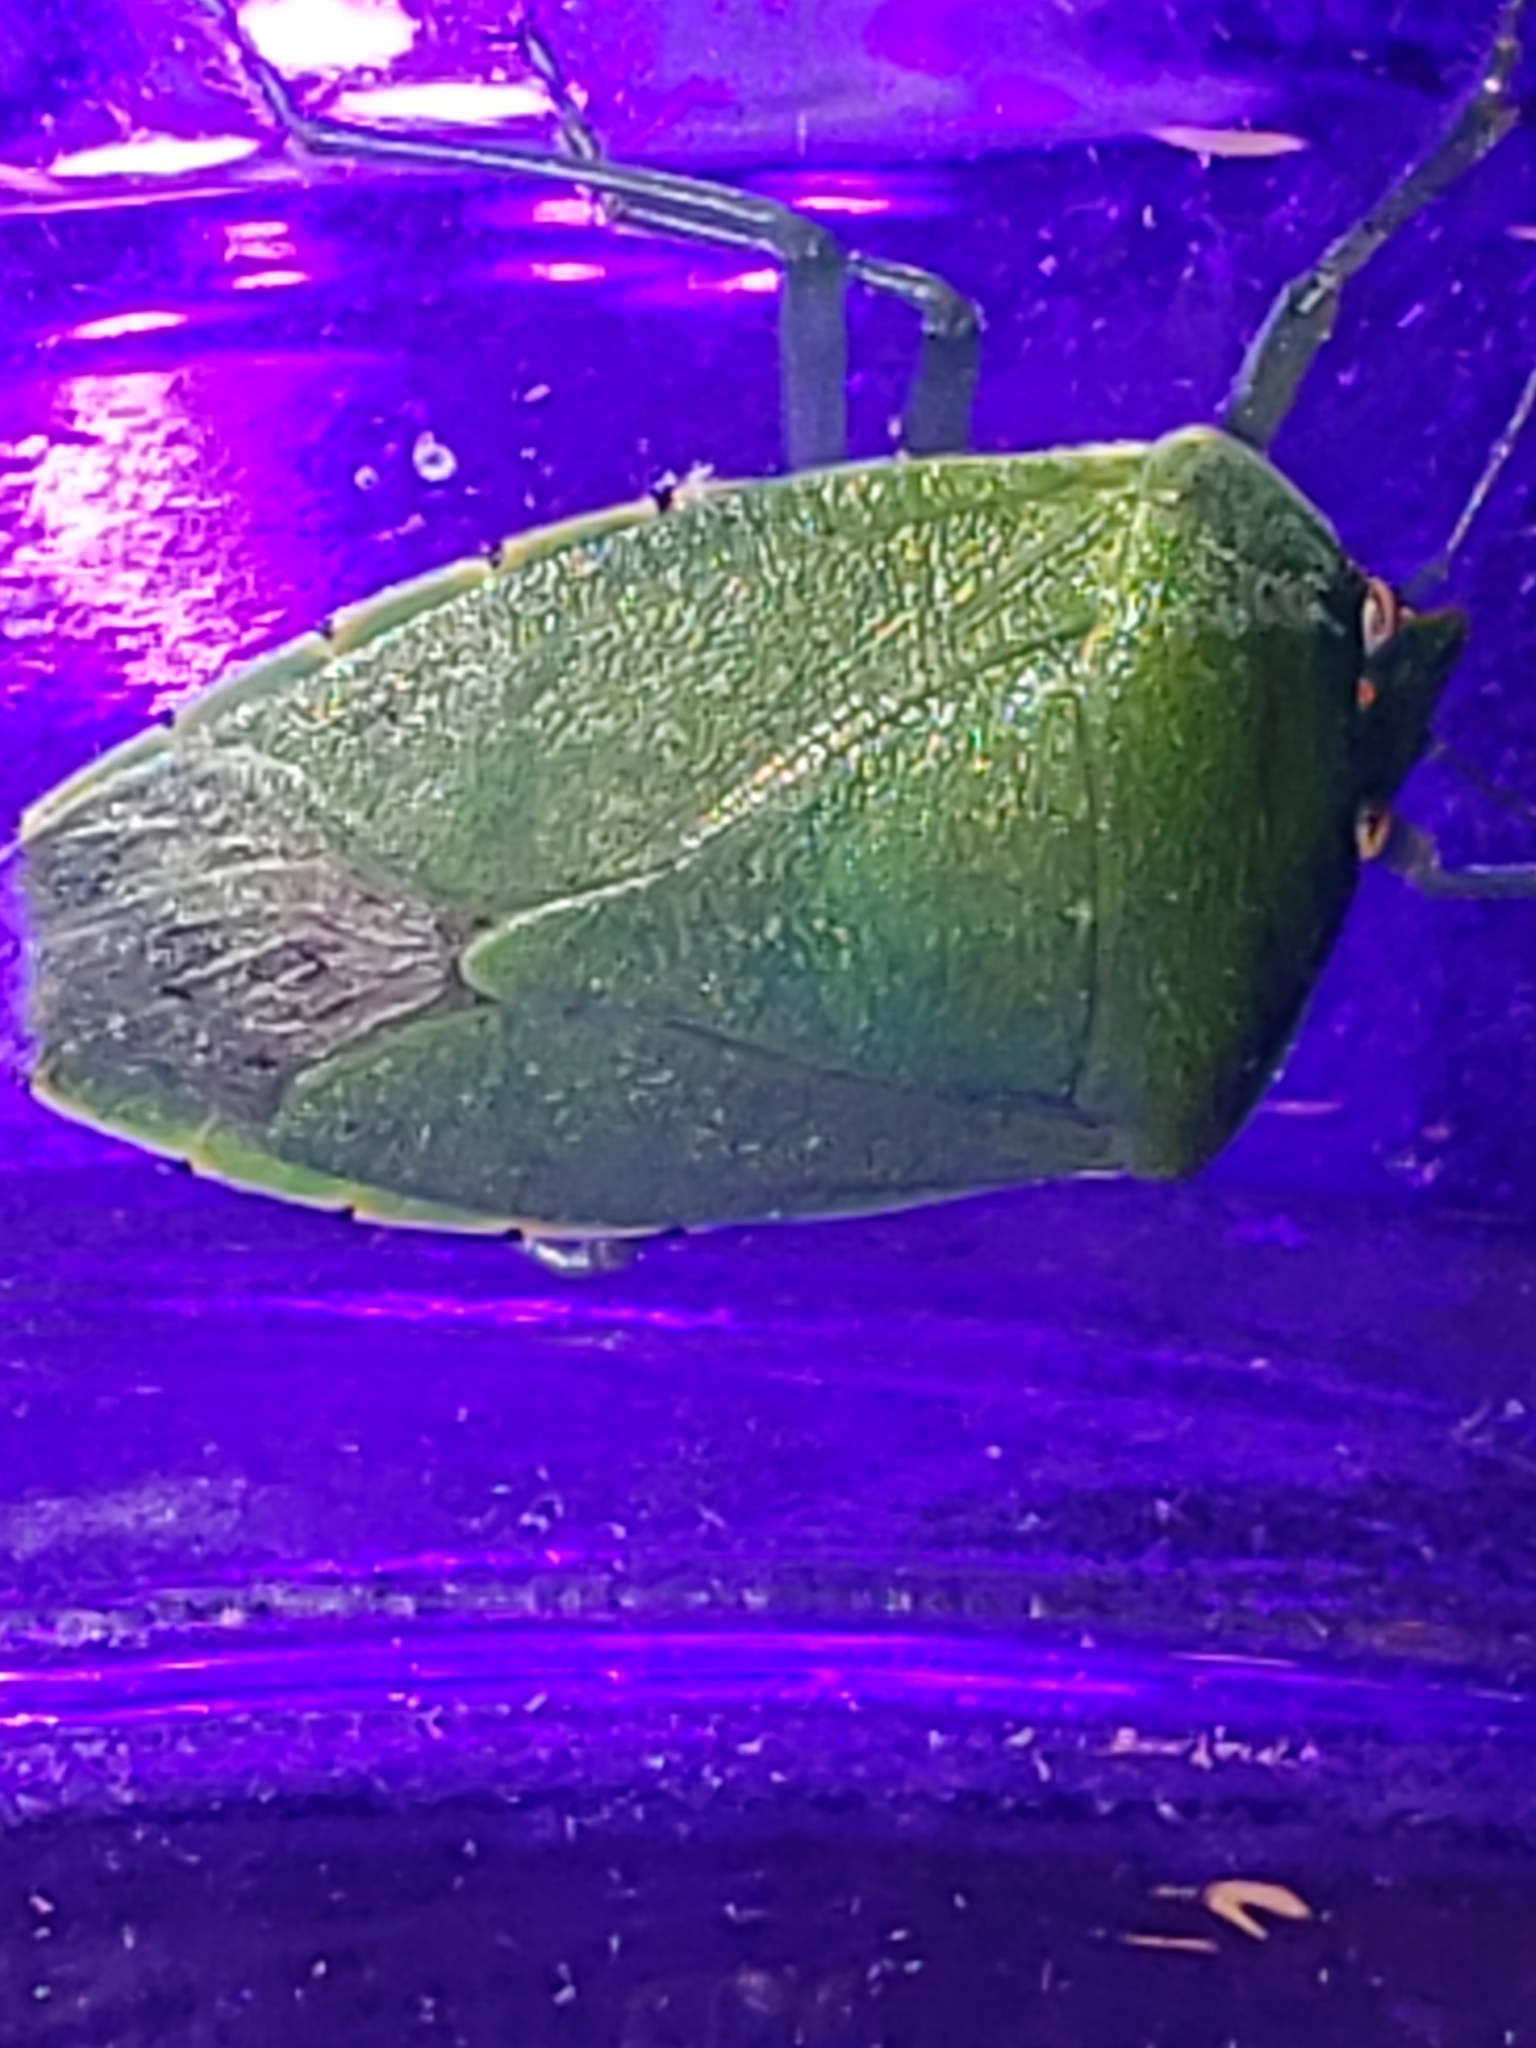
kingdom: Animalia
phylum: Arthropoda
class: Insecta
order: Hemiptera
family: Pentatomidae
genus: Chinavia
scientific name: Chinavia hilaris
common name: Green stink bug
